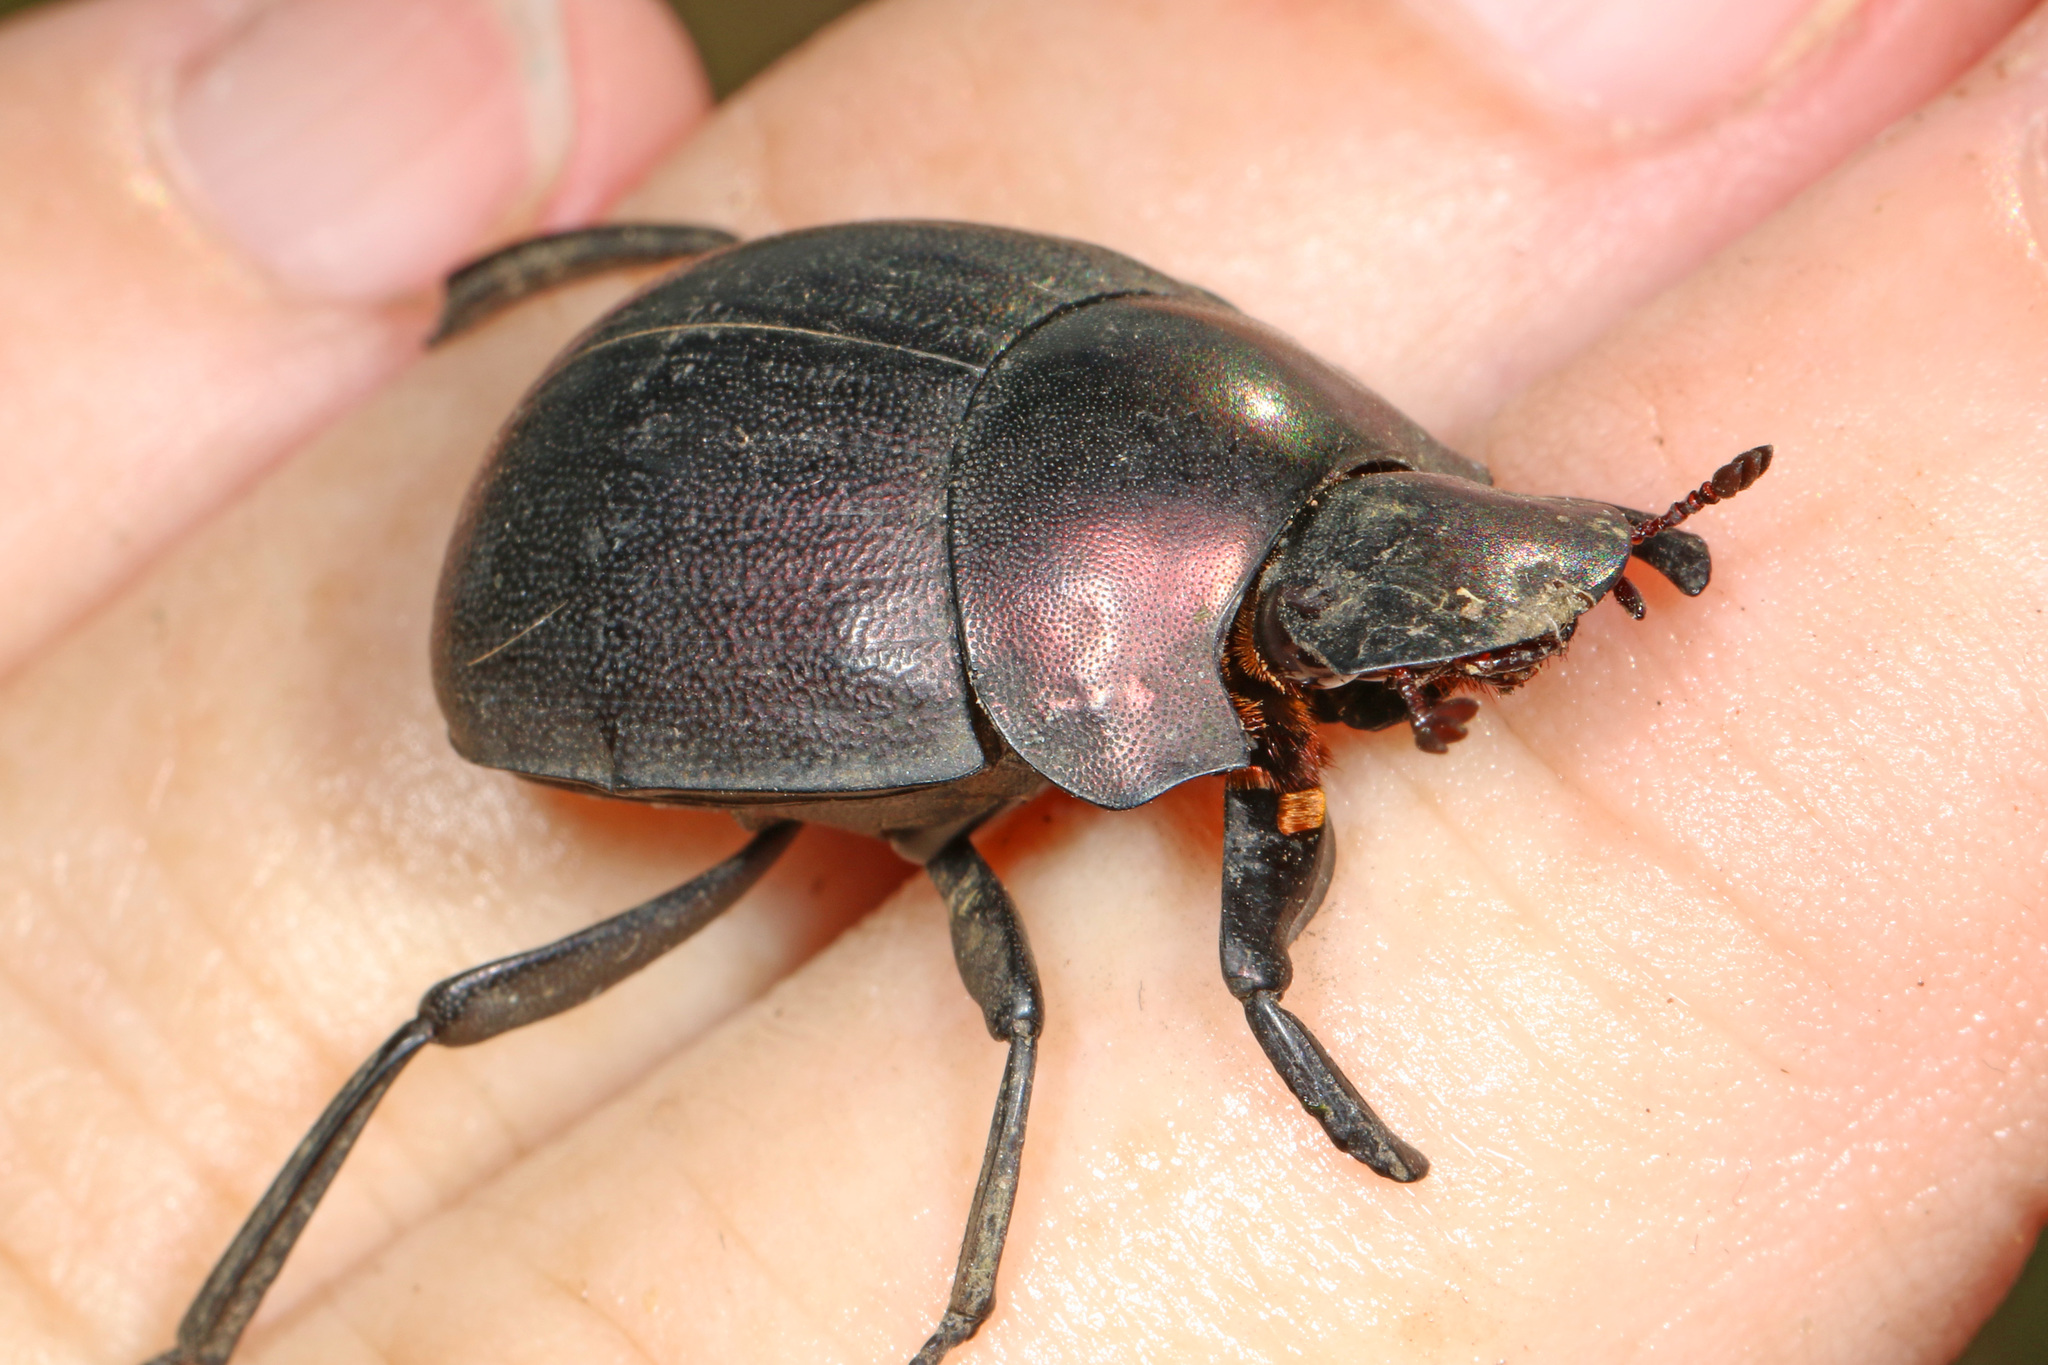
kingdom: Animalia
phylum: Arthropoda
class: Insecta
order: Coleoptera
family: Scarabaeidae
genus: Chalconotus
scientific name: Chalconotus convexus
